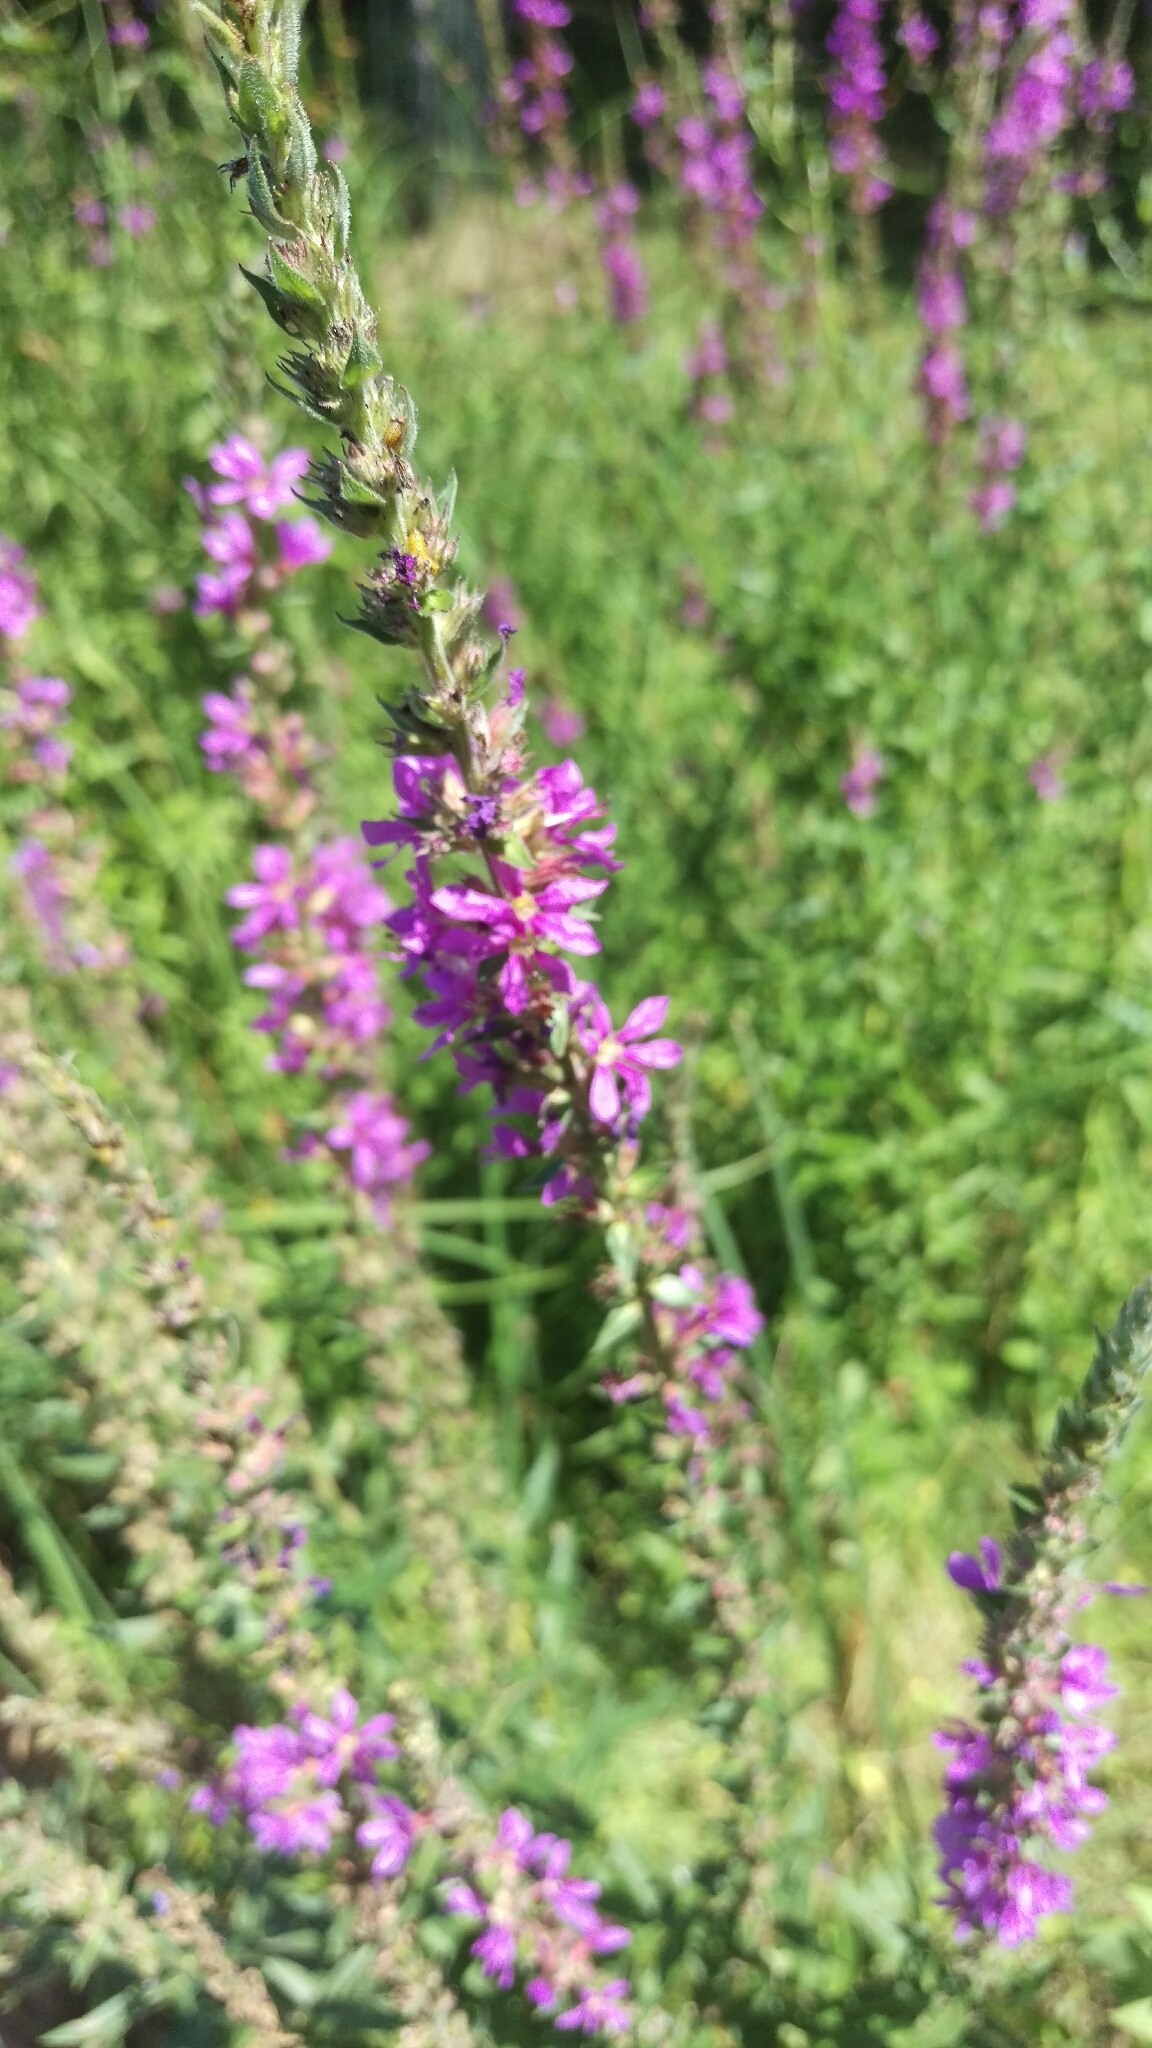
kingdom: Plantae
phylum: Tracheophyta
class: Magnoliopsida
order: Myrtales
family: Lythraceae
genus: Lythrum
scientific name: Lythrum salicaria
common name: Purple loosestrife
